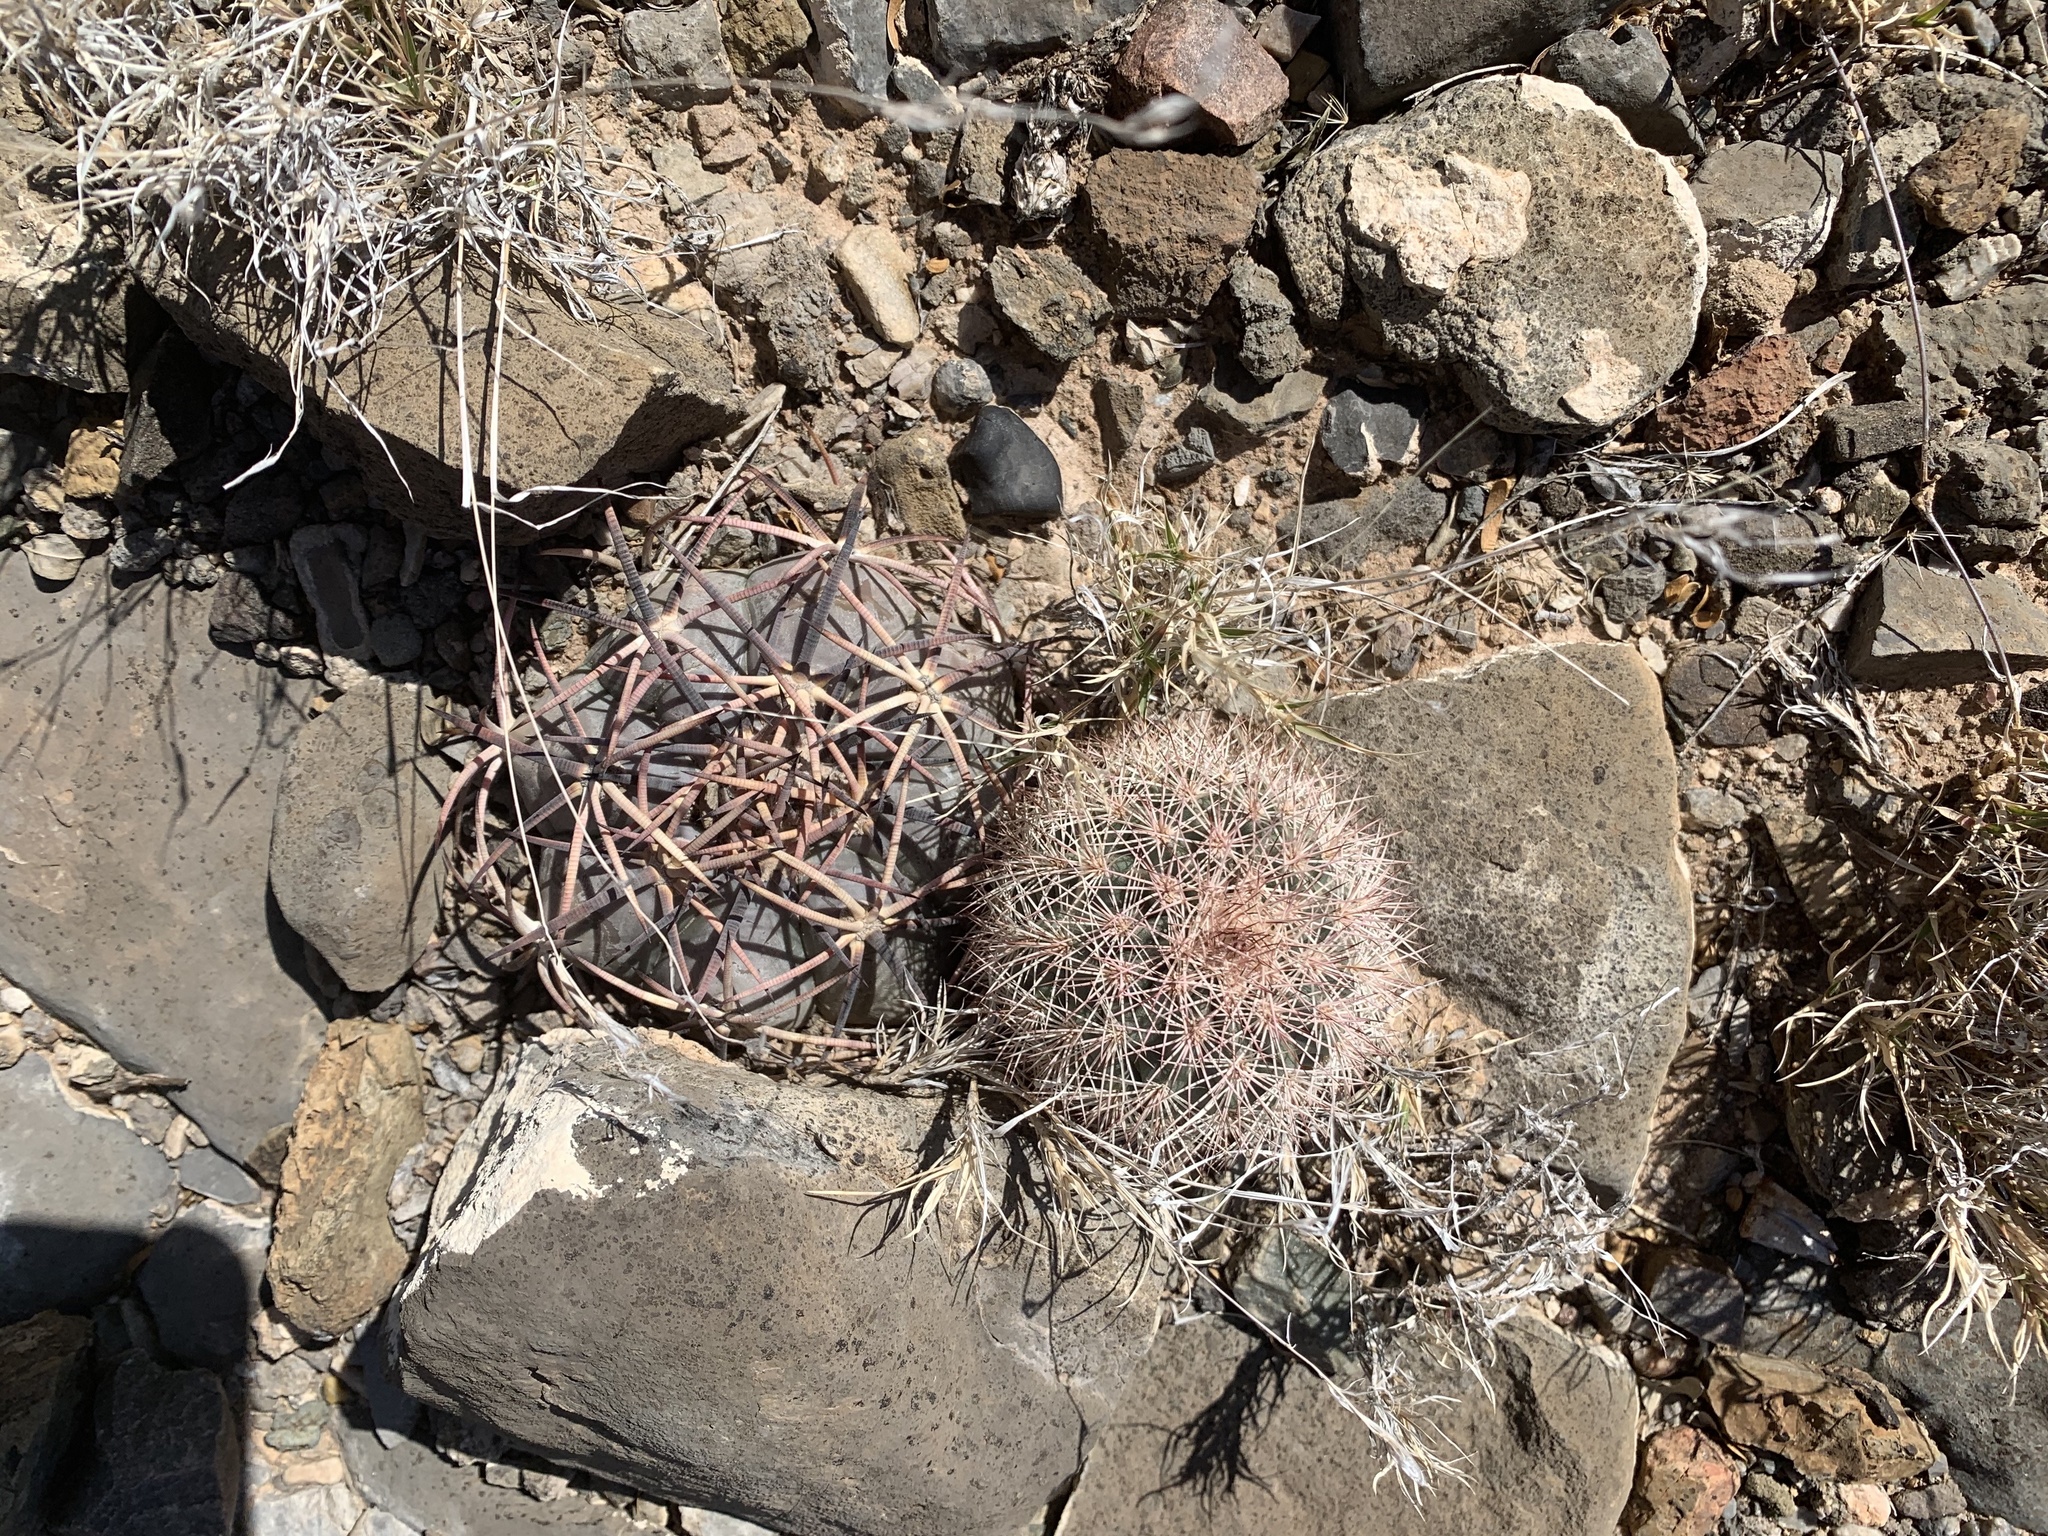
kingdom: Plantae
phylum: Tracheophyta
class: Magnoliopsida
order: Caryophyllales
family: Cactaceae
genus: Echinocereus
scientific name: Echinocereus dasyacanthus
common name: Spiny hedgehog cactus
